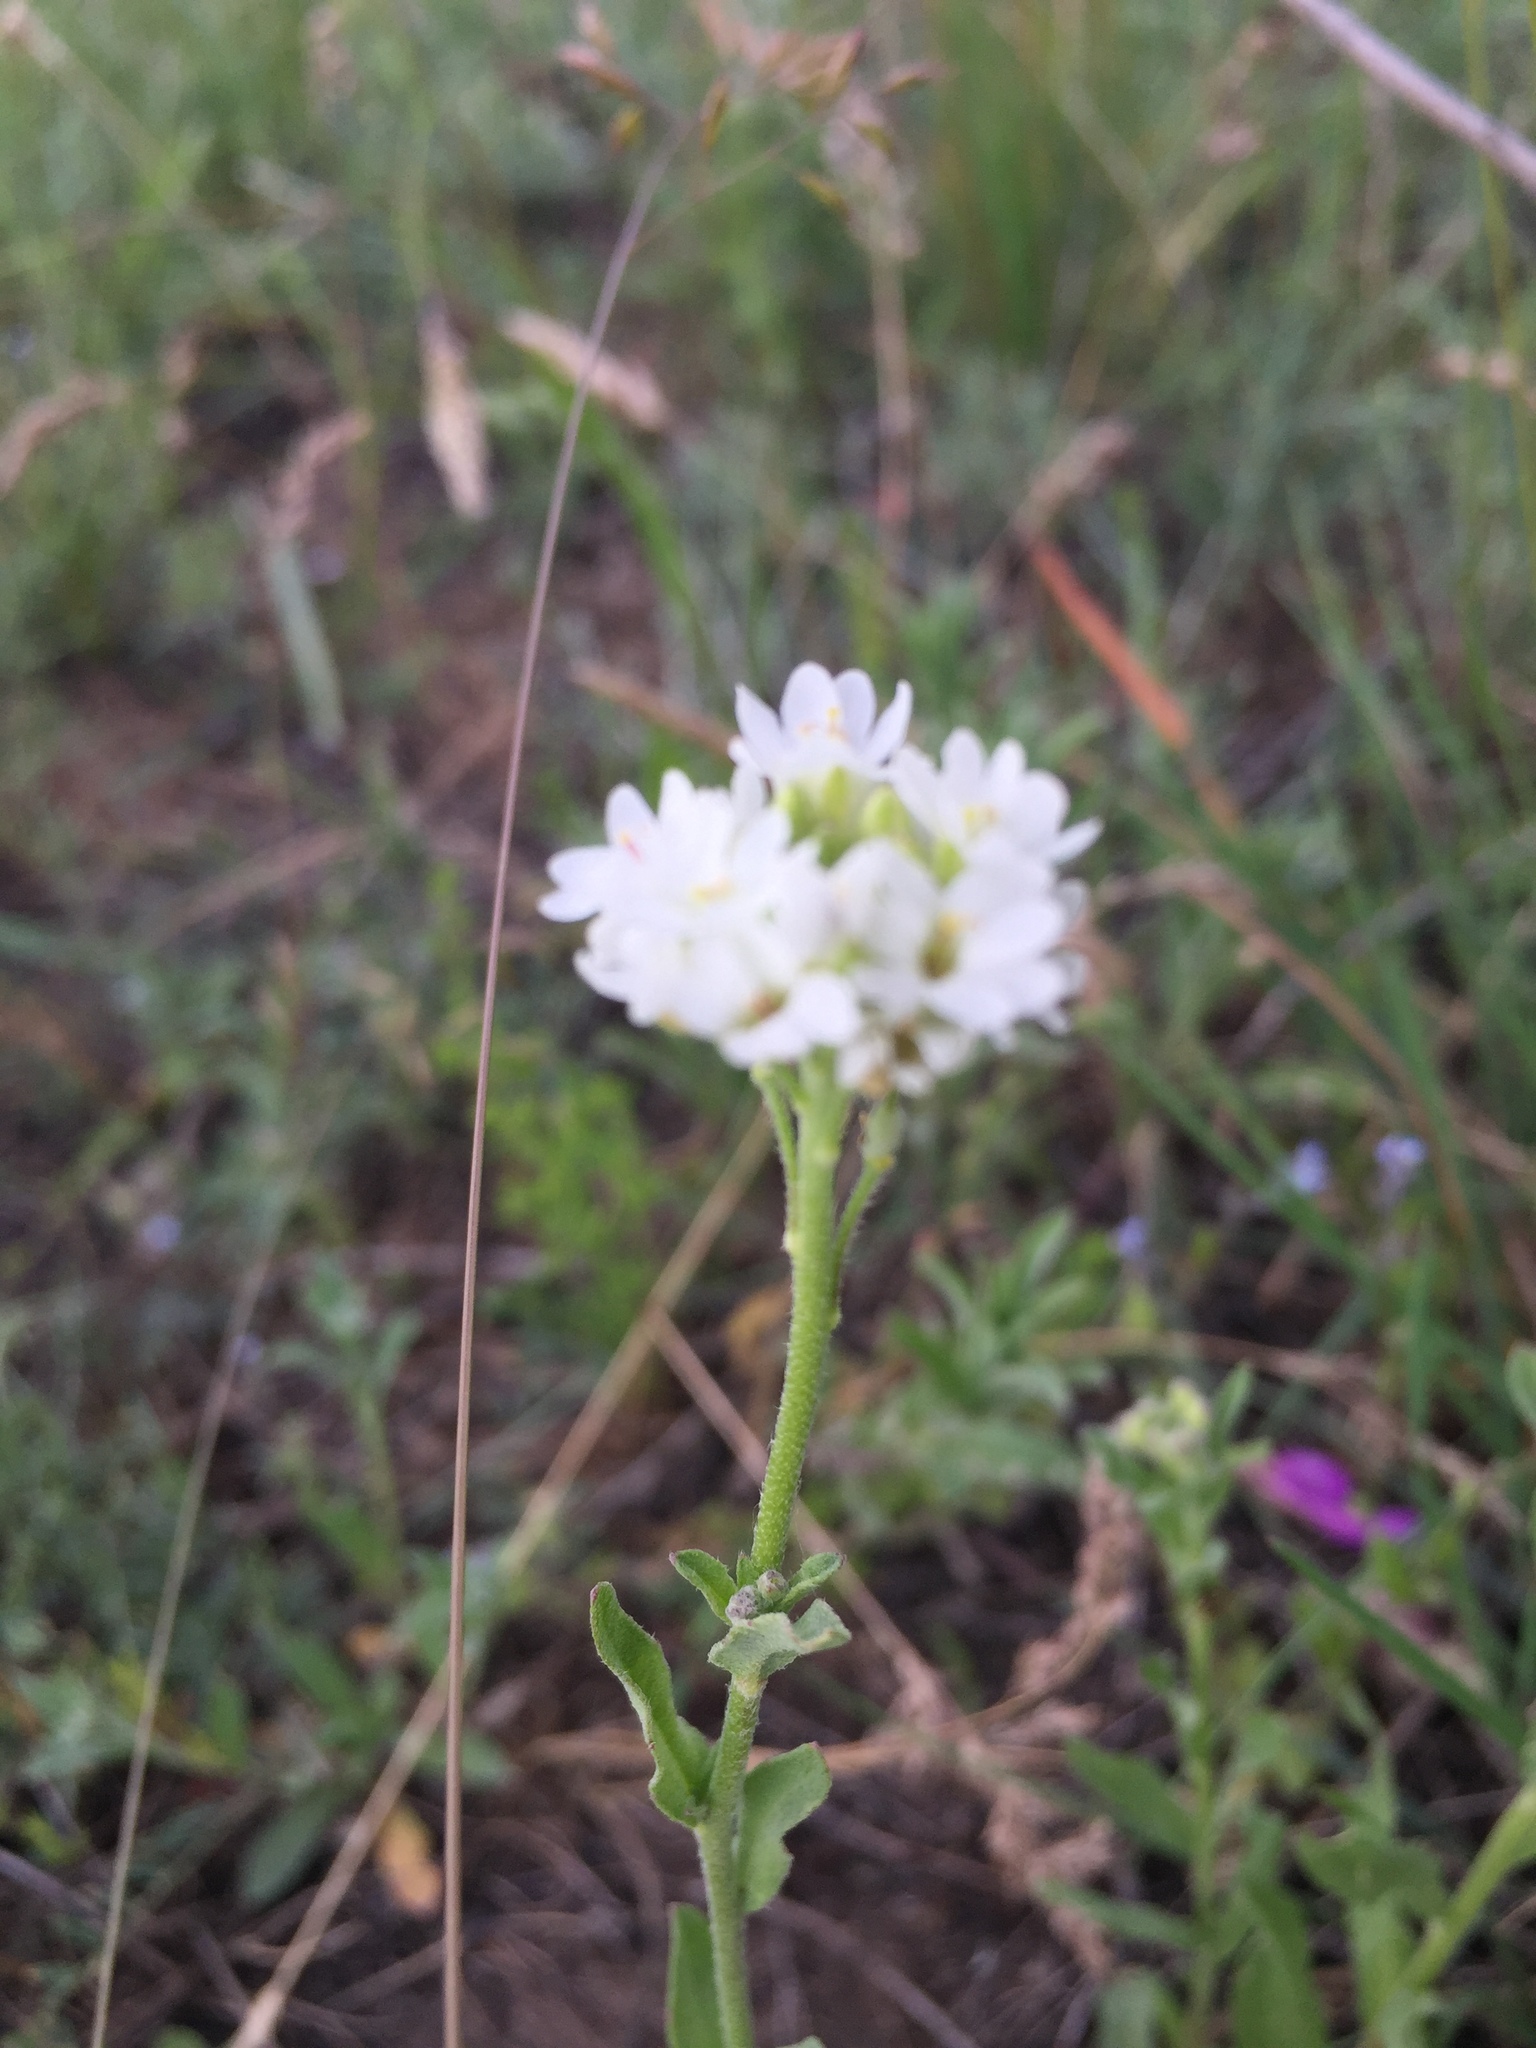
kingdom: Plantae
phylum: Tracheophyta
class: Magnoliopsida
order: Brassicales
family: Brassicaceae
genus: Berteroa
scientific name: Berteroa incana
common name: Hoary alison
